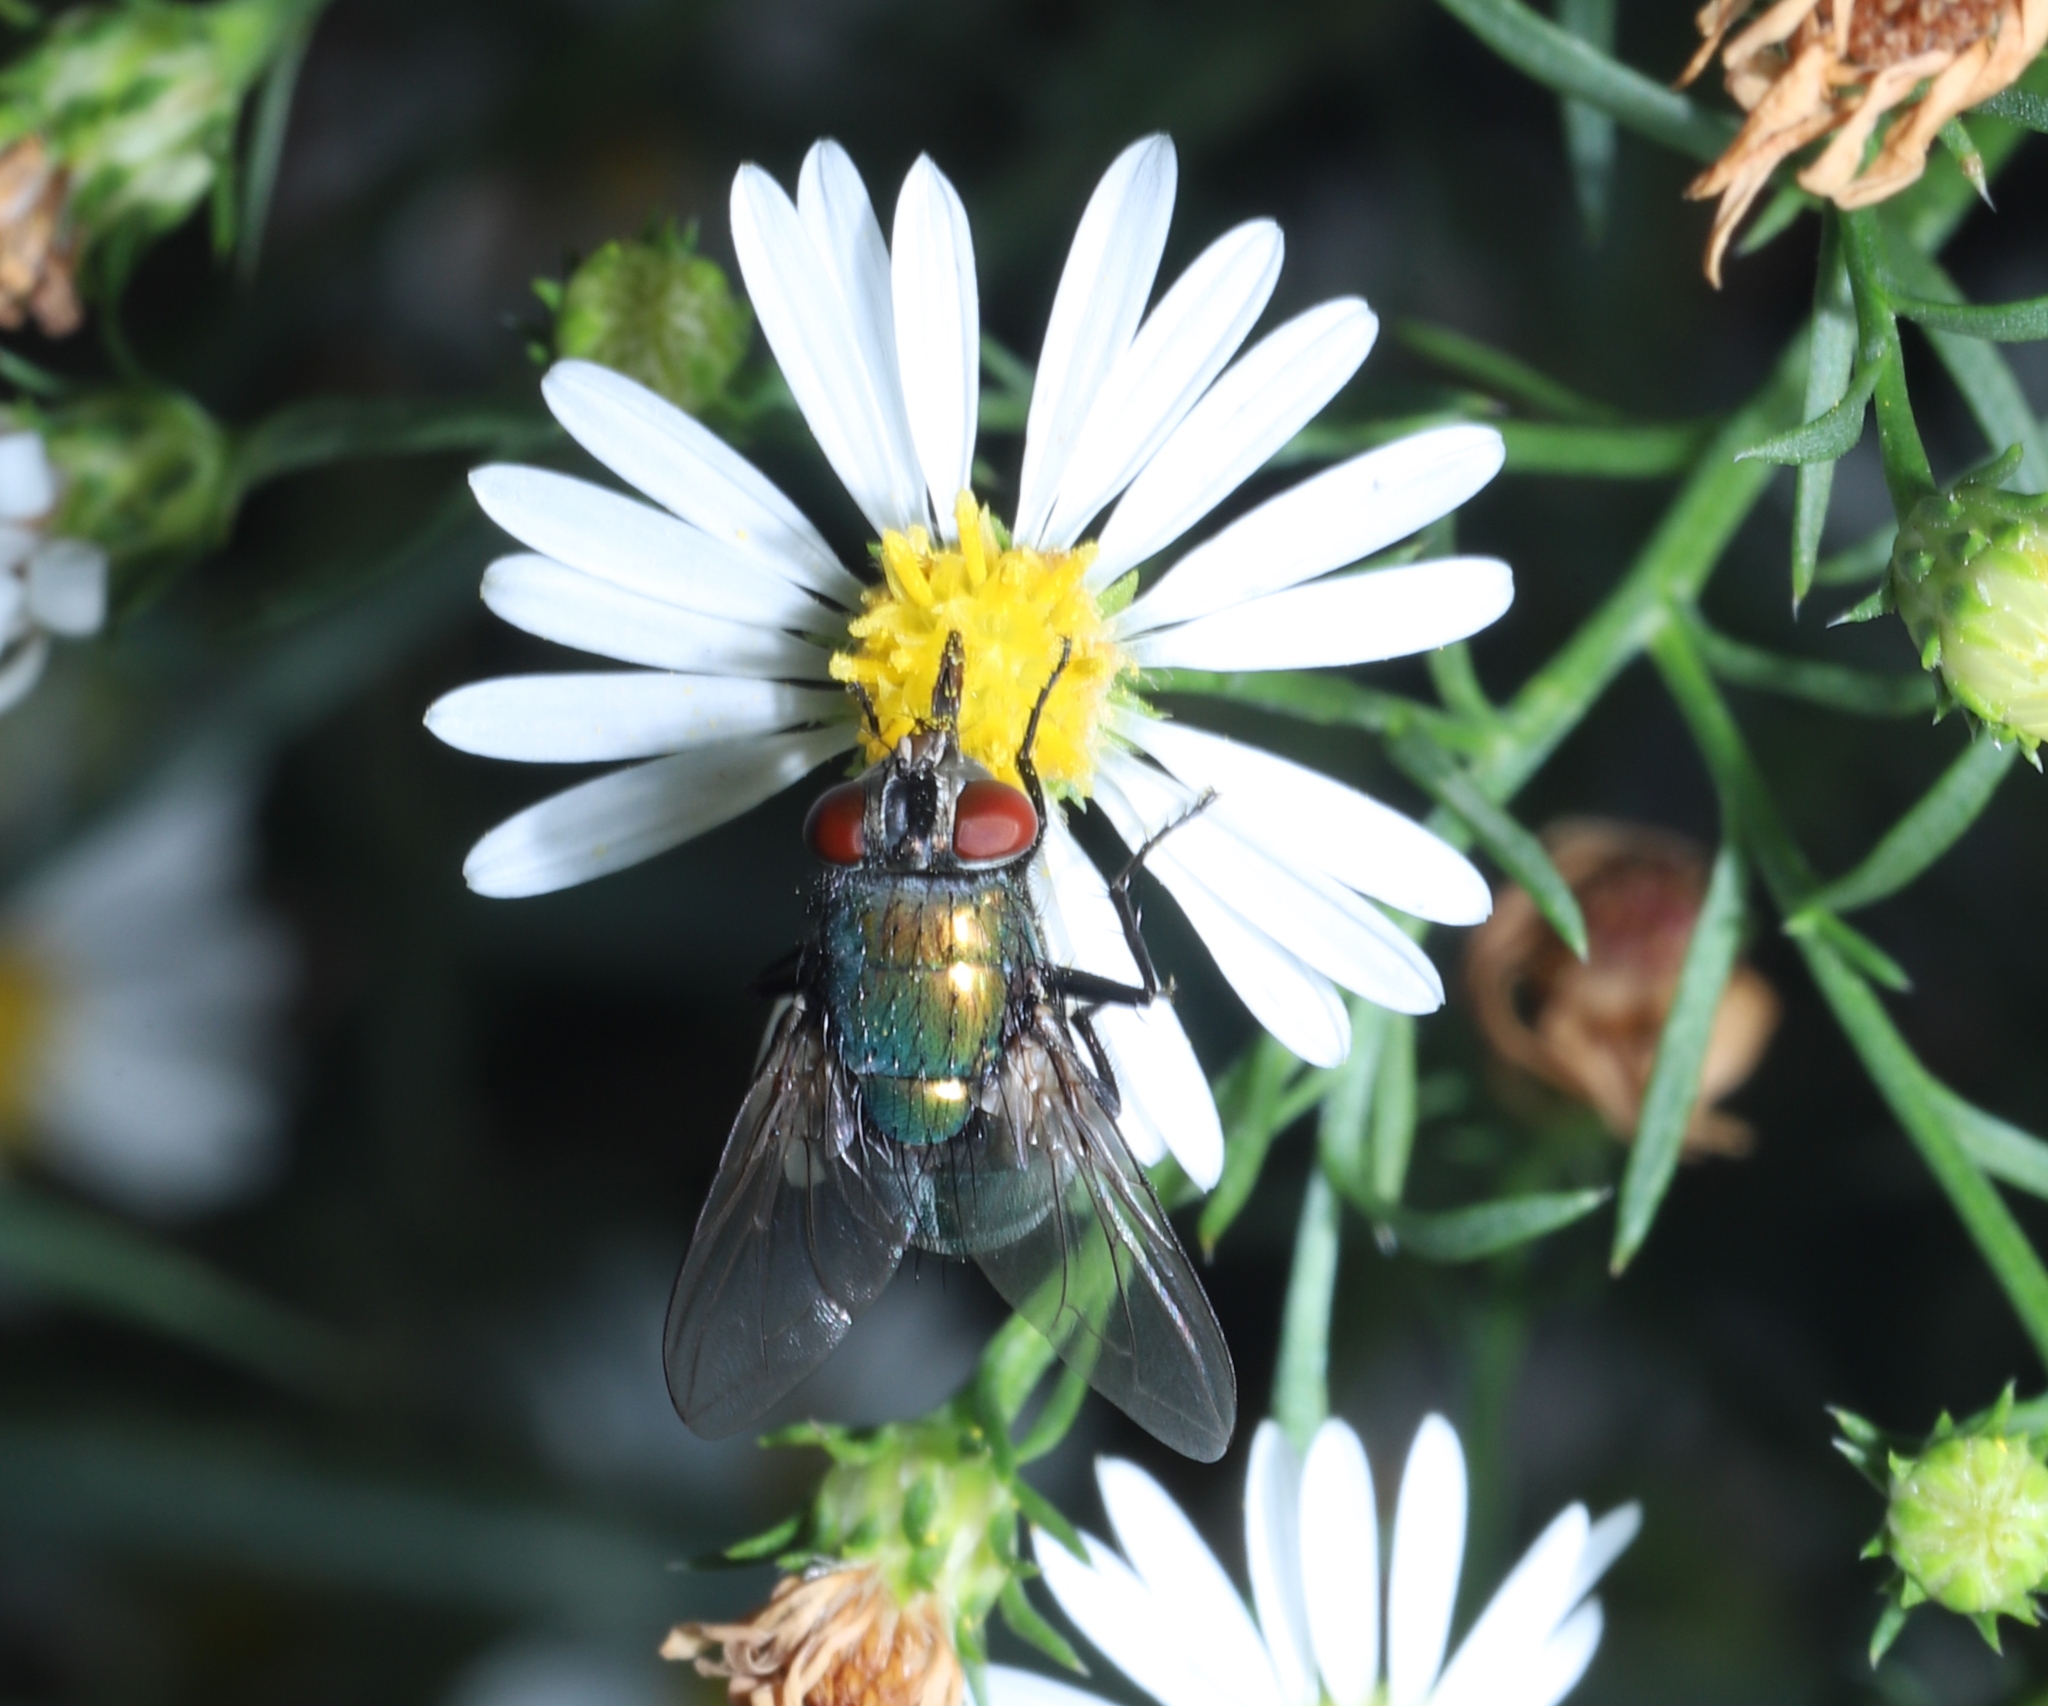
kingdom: Animalia
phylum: Arthropoda
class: Insecta
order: Diptera
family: Calliphoridae
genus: Lucilia
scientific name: Lucilia sericata
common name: Blow fly
